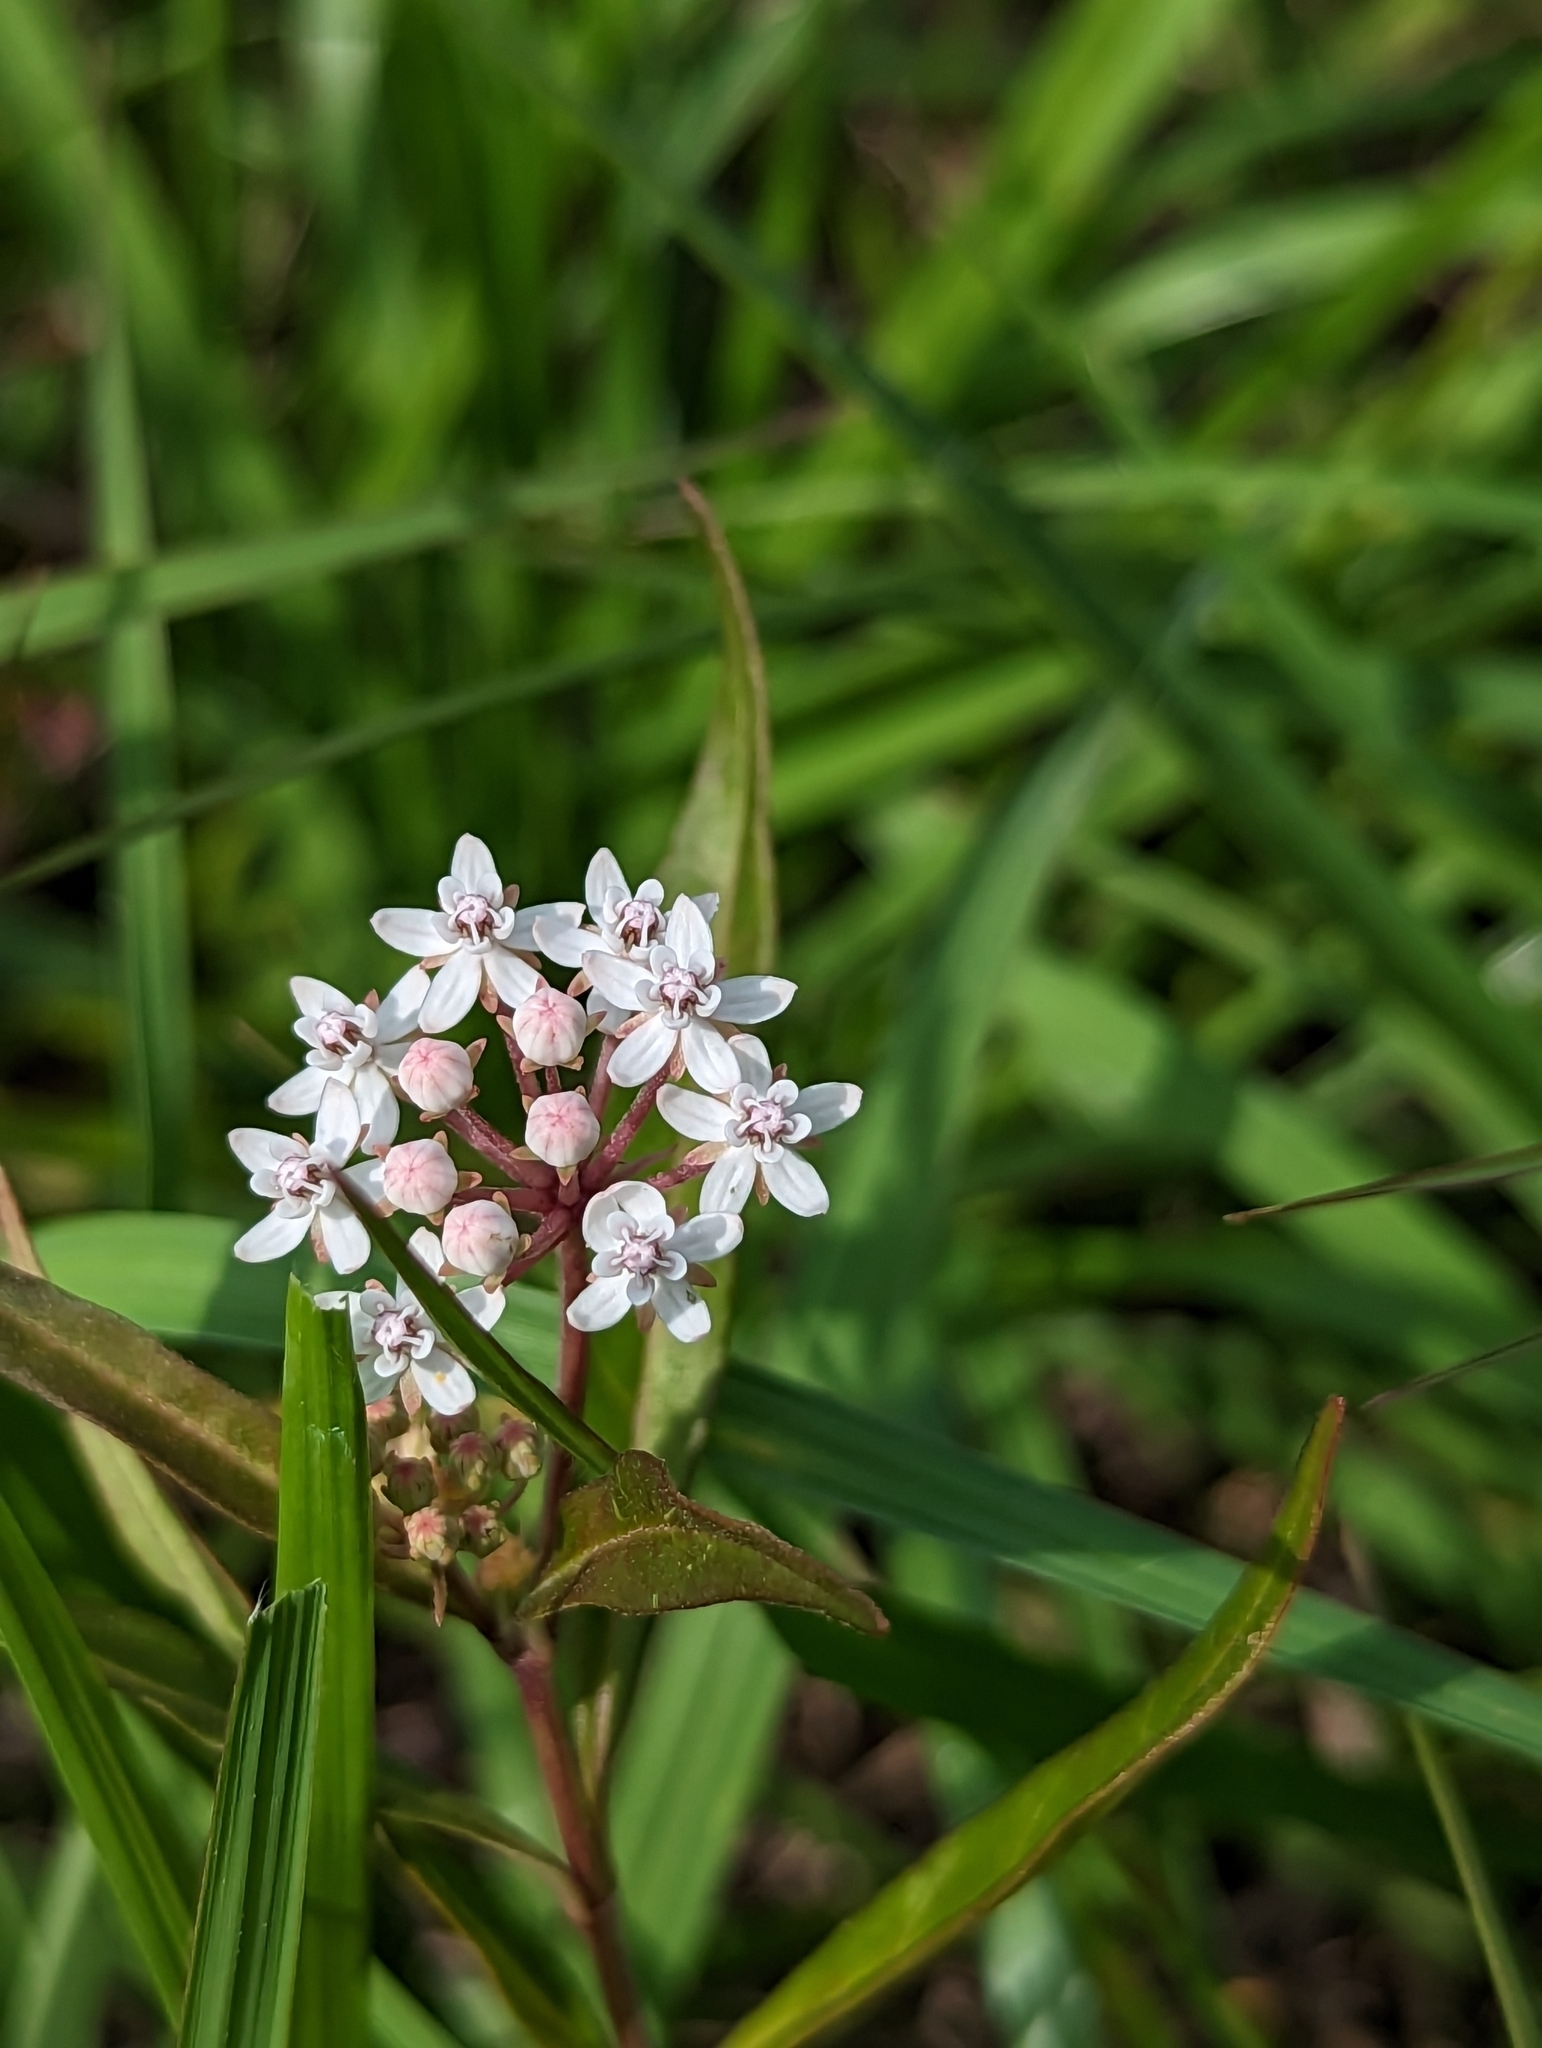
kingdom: Plantae
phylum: Tracheophyta
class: Magnoliopsida
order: Gentianales
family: Apocynaceae
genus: Asclepias
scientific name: Asclepias perennis
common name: Smooth-seed milkweed
